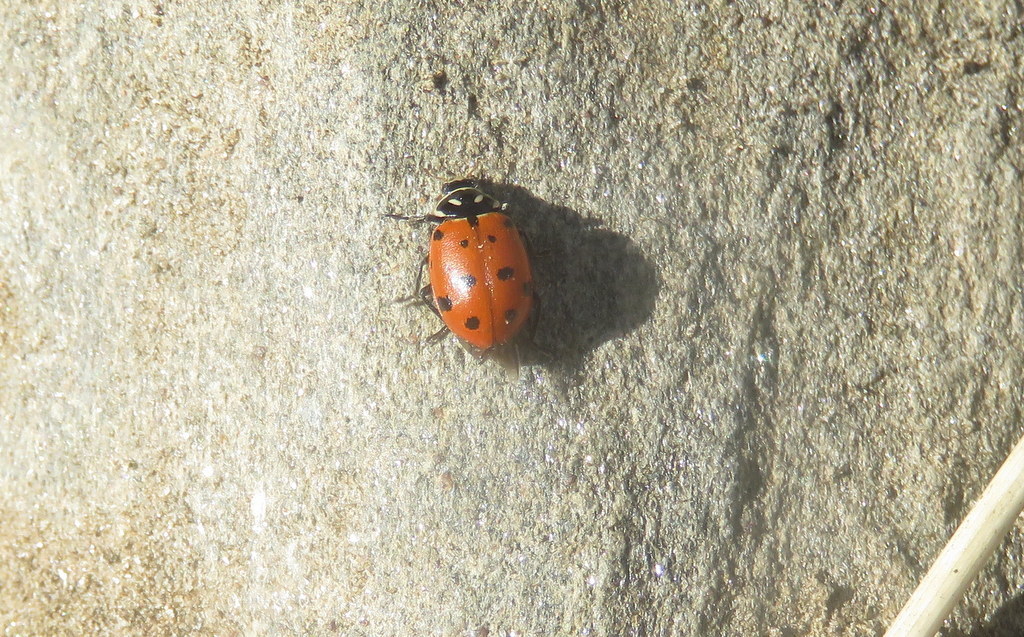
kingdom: Animalia
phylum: Arthropoda
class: Insecta
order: Coleoptera
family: Coccinellidae
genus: Hippodamia
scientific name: Hippodamia convergens
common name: Convergent lady beetle
